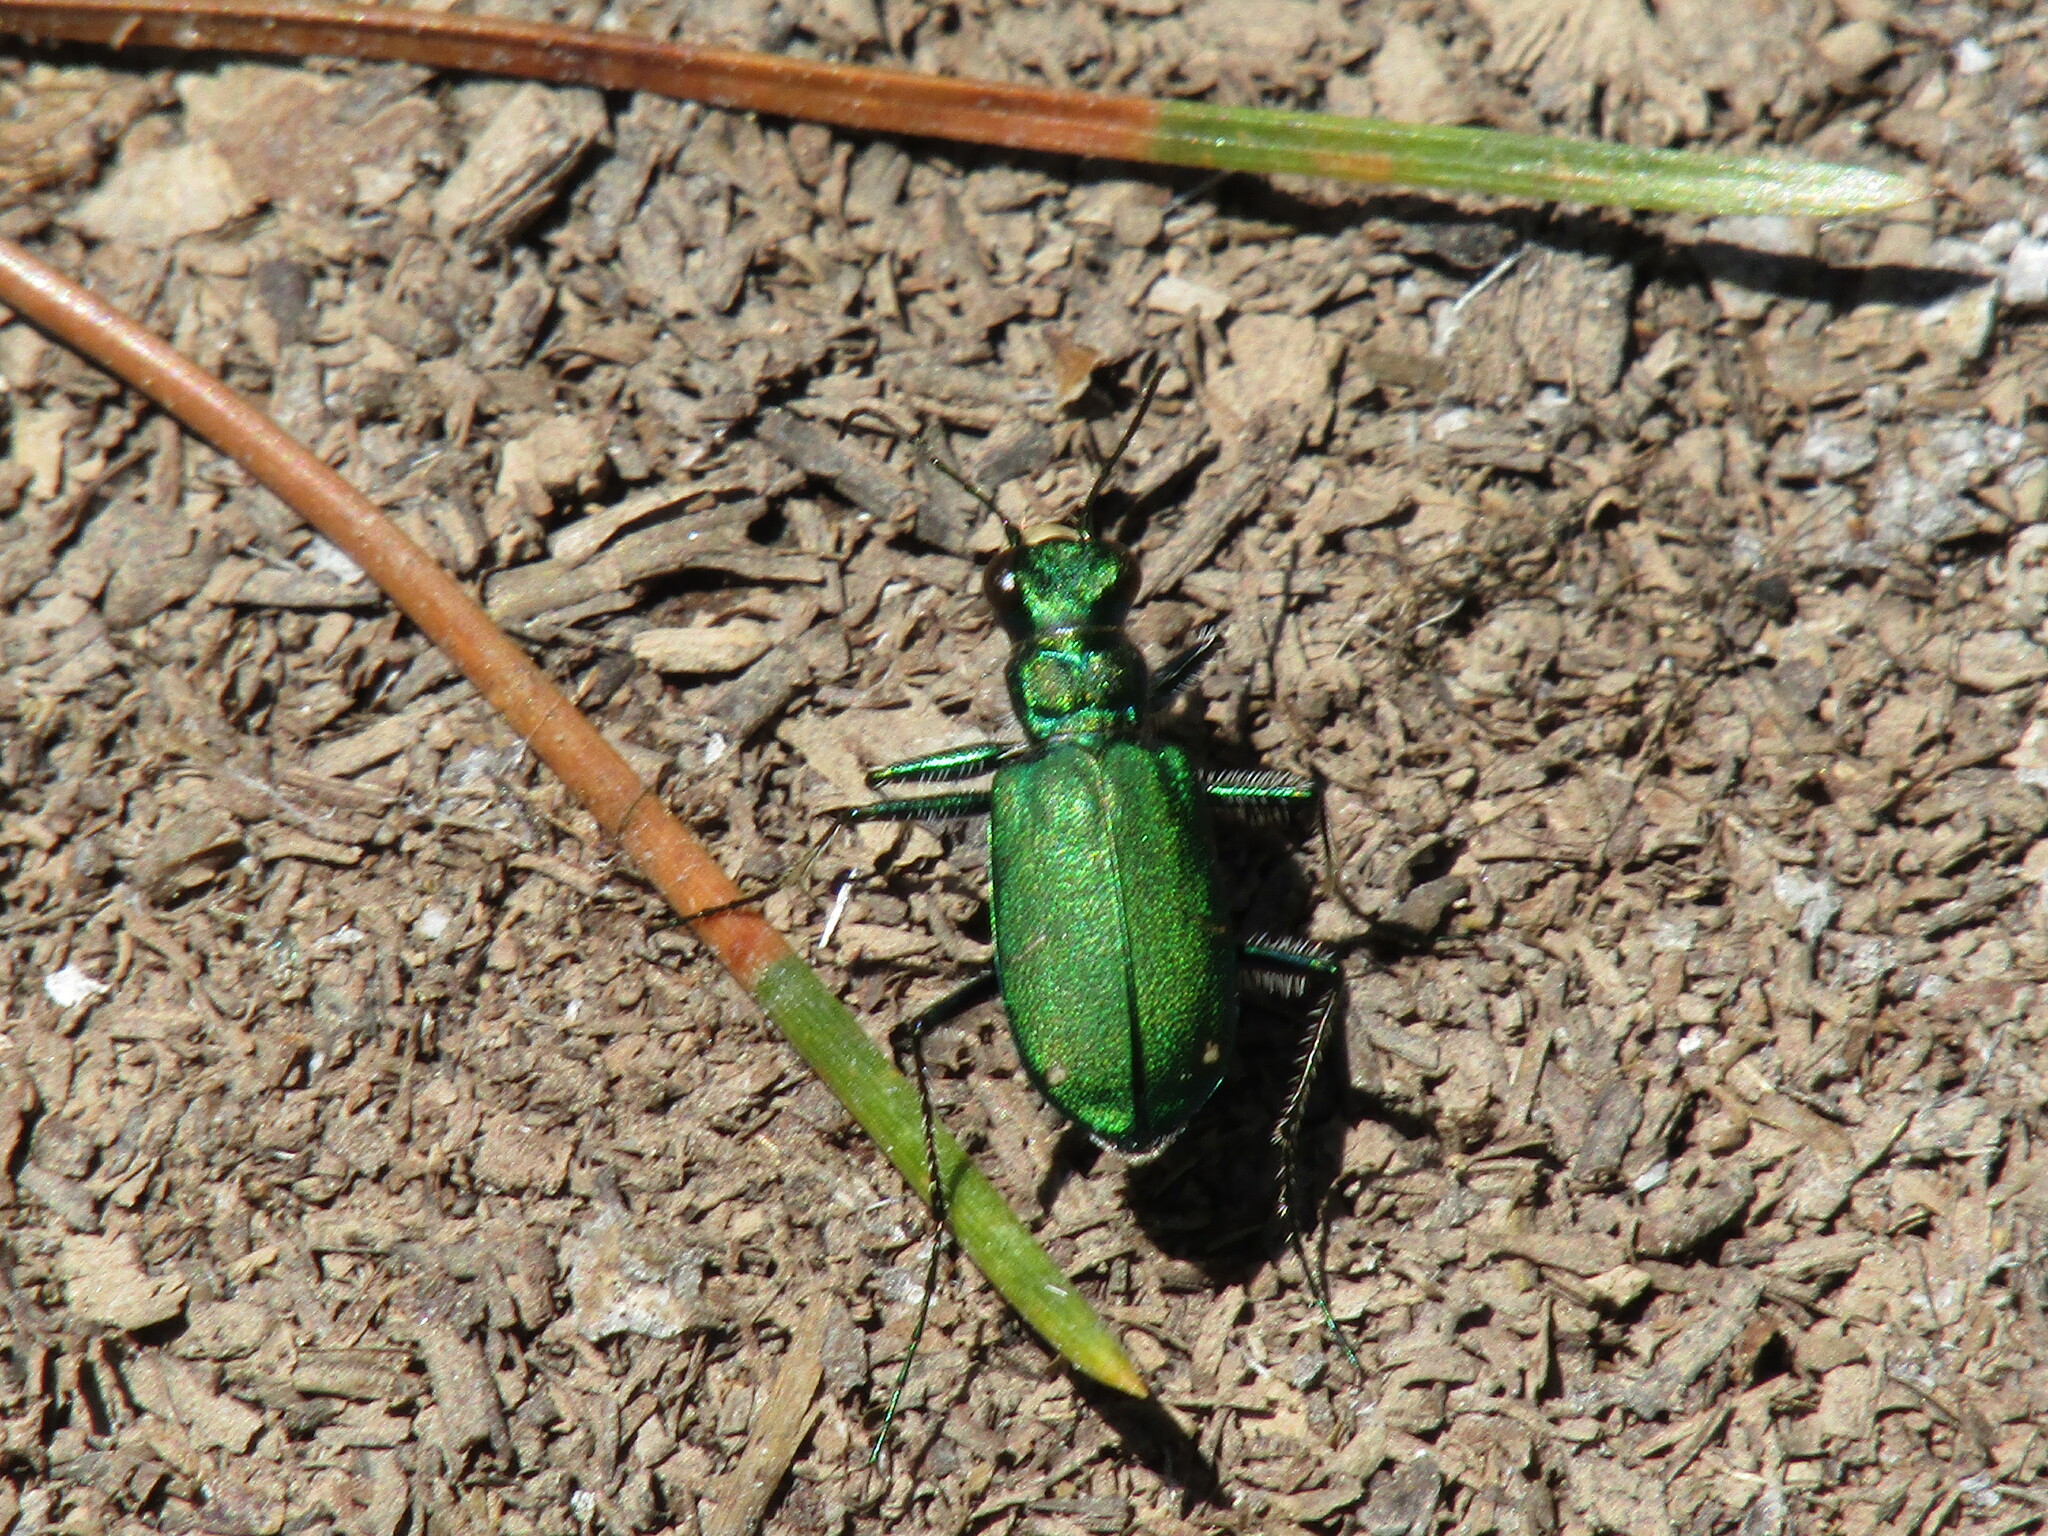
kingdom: Animalia
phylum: Arthropoda
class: Insecta
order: Coleoptera
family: Carabidae
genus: Cicindela
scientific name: Cicindela longilabris
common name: Boreal long-lipped tiger beetle
